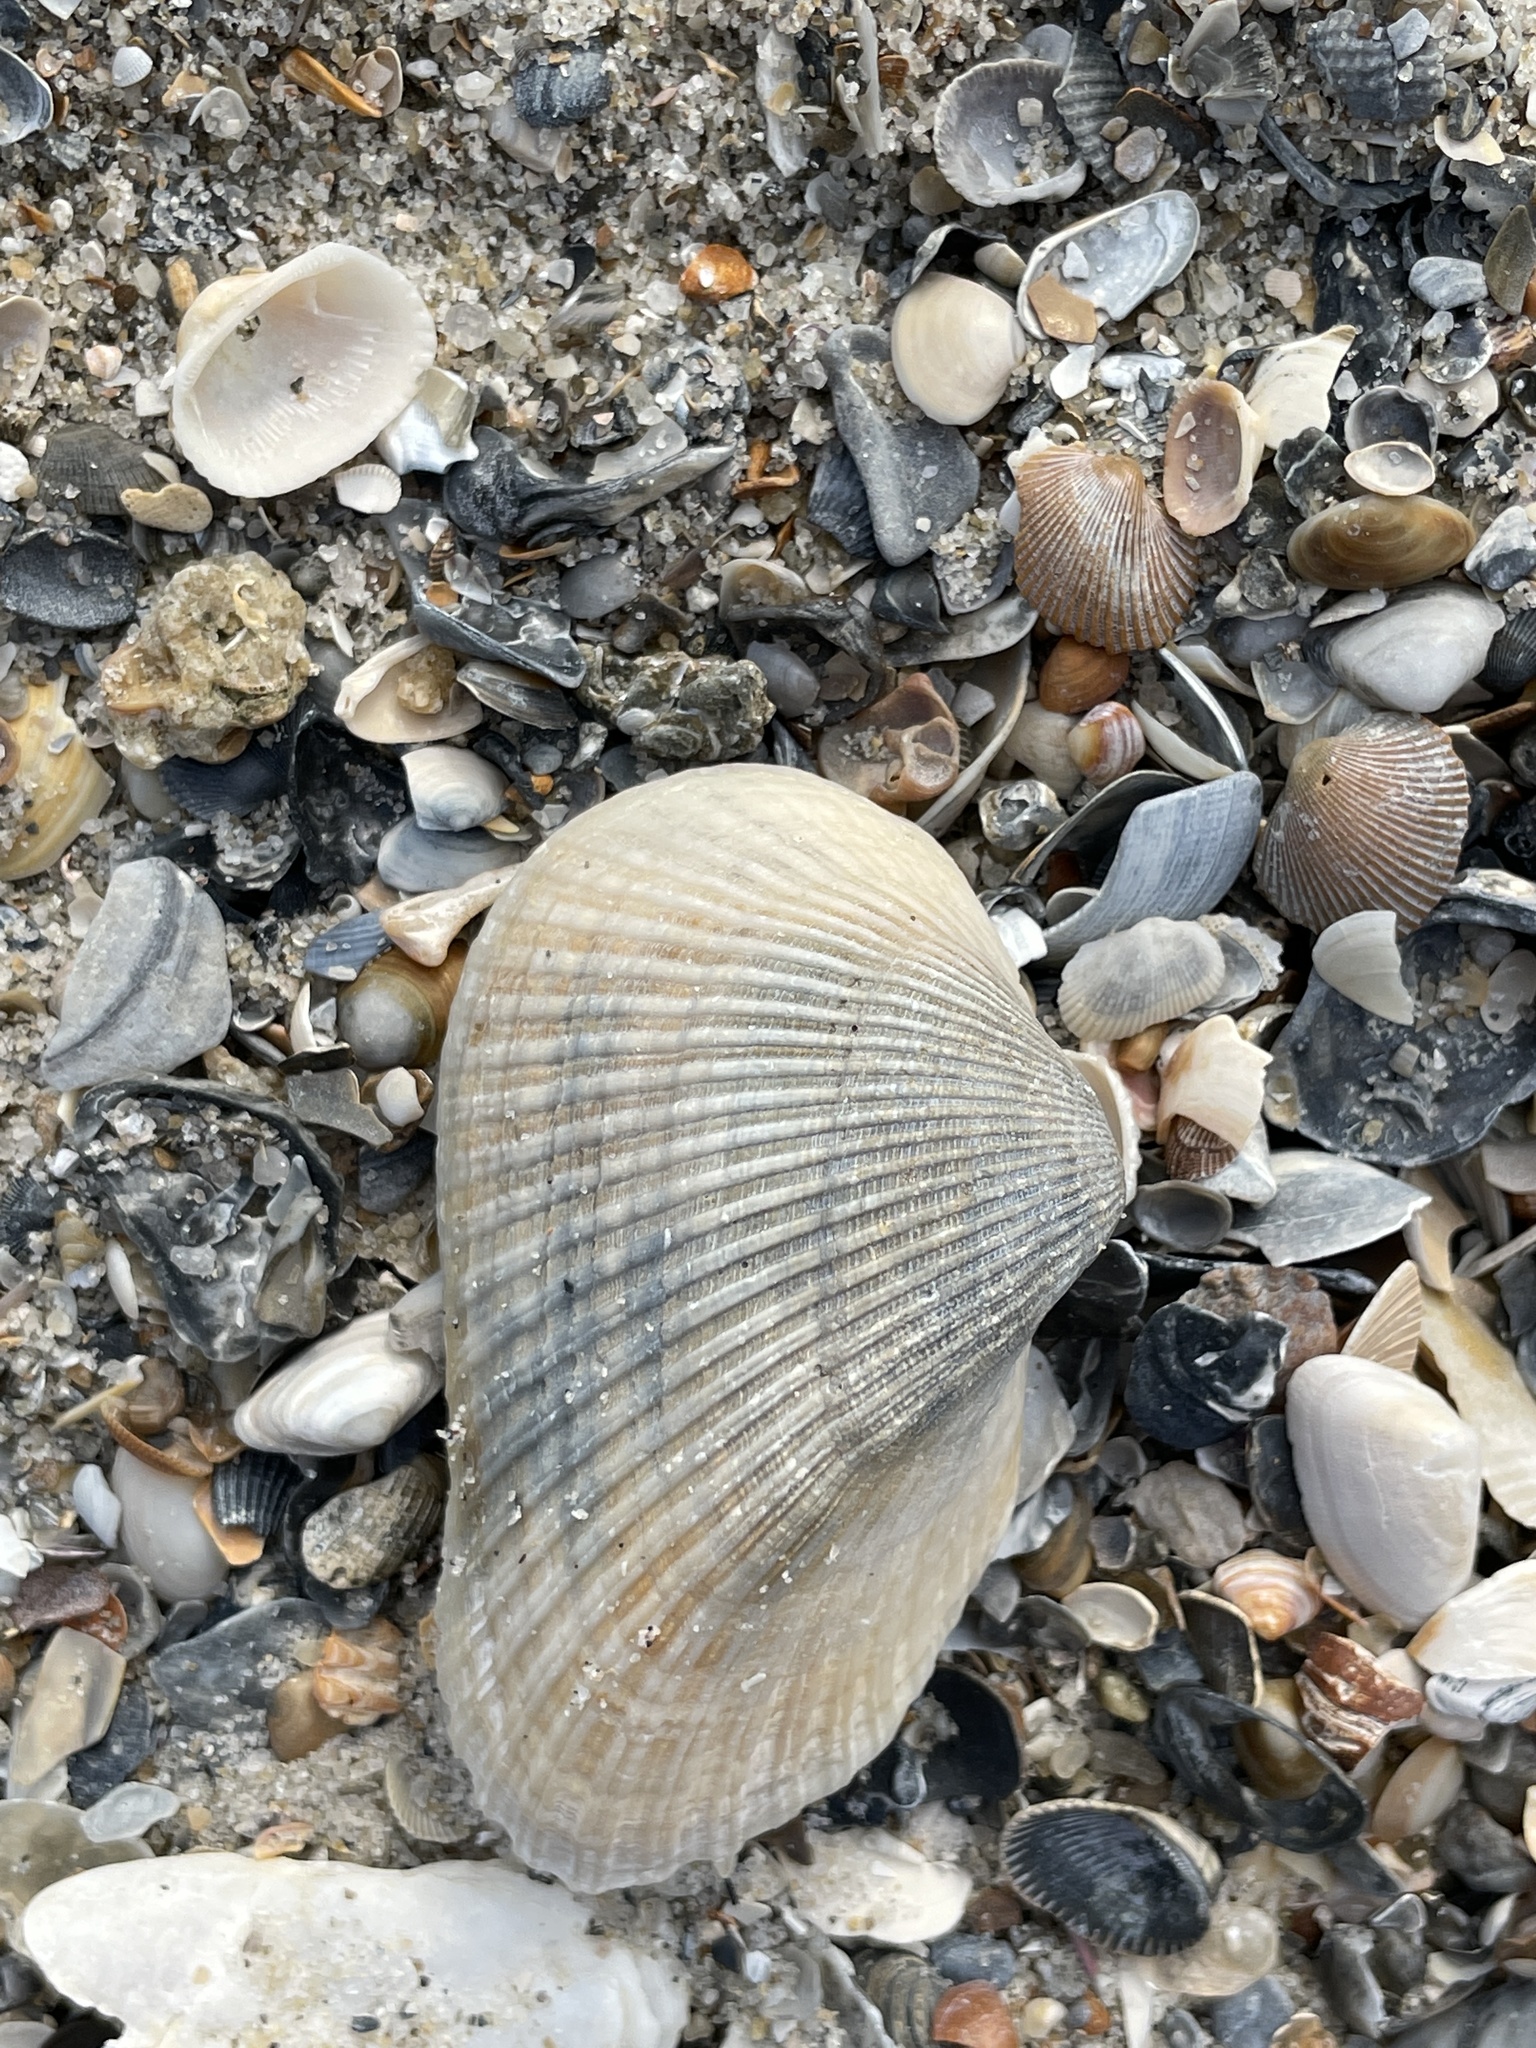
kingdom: Animalia
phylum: Mollusca
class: Bivalvia
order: Arcida
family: Noetiidae
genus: Noetia
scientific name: Noetia ponderosa
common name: Ponderous ark
